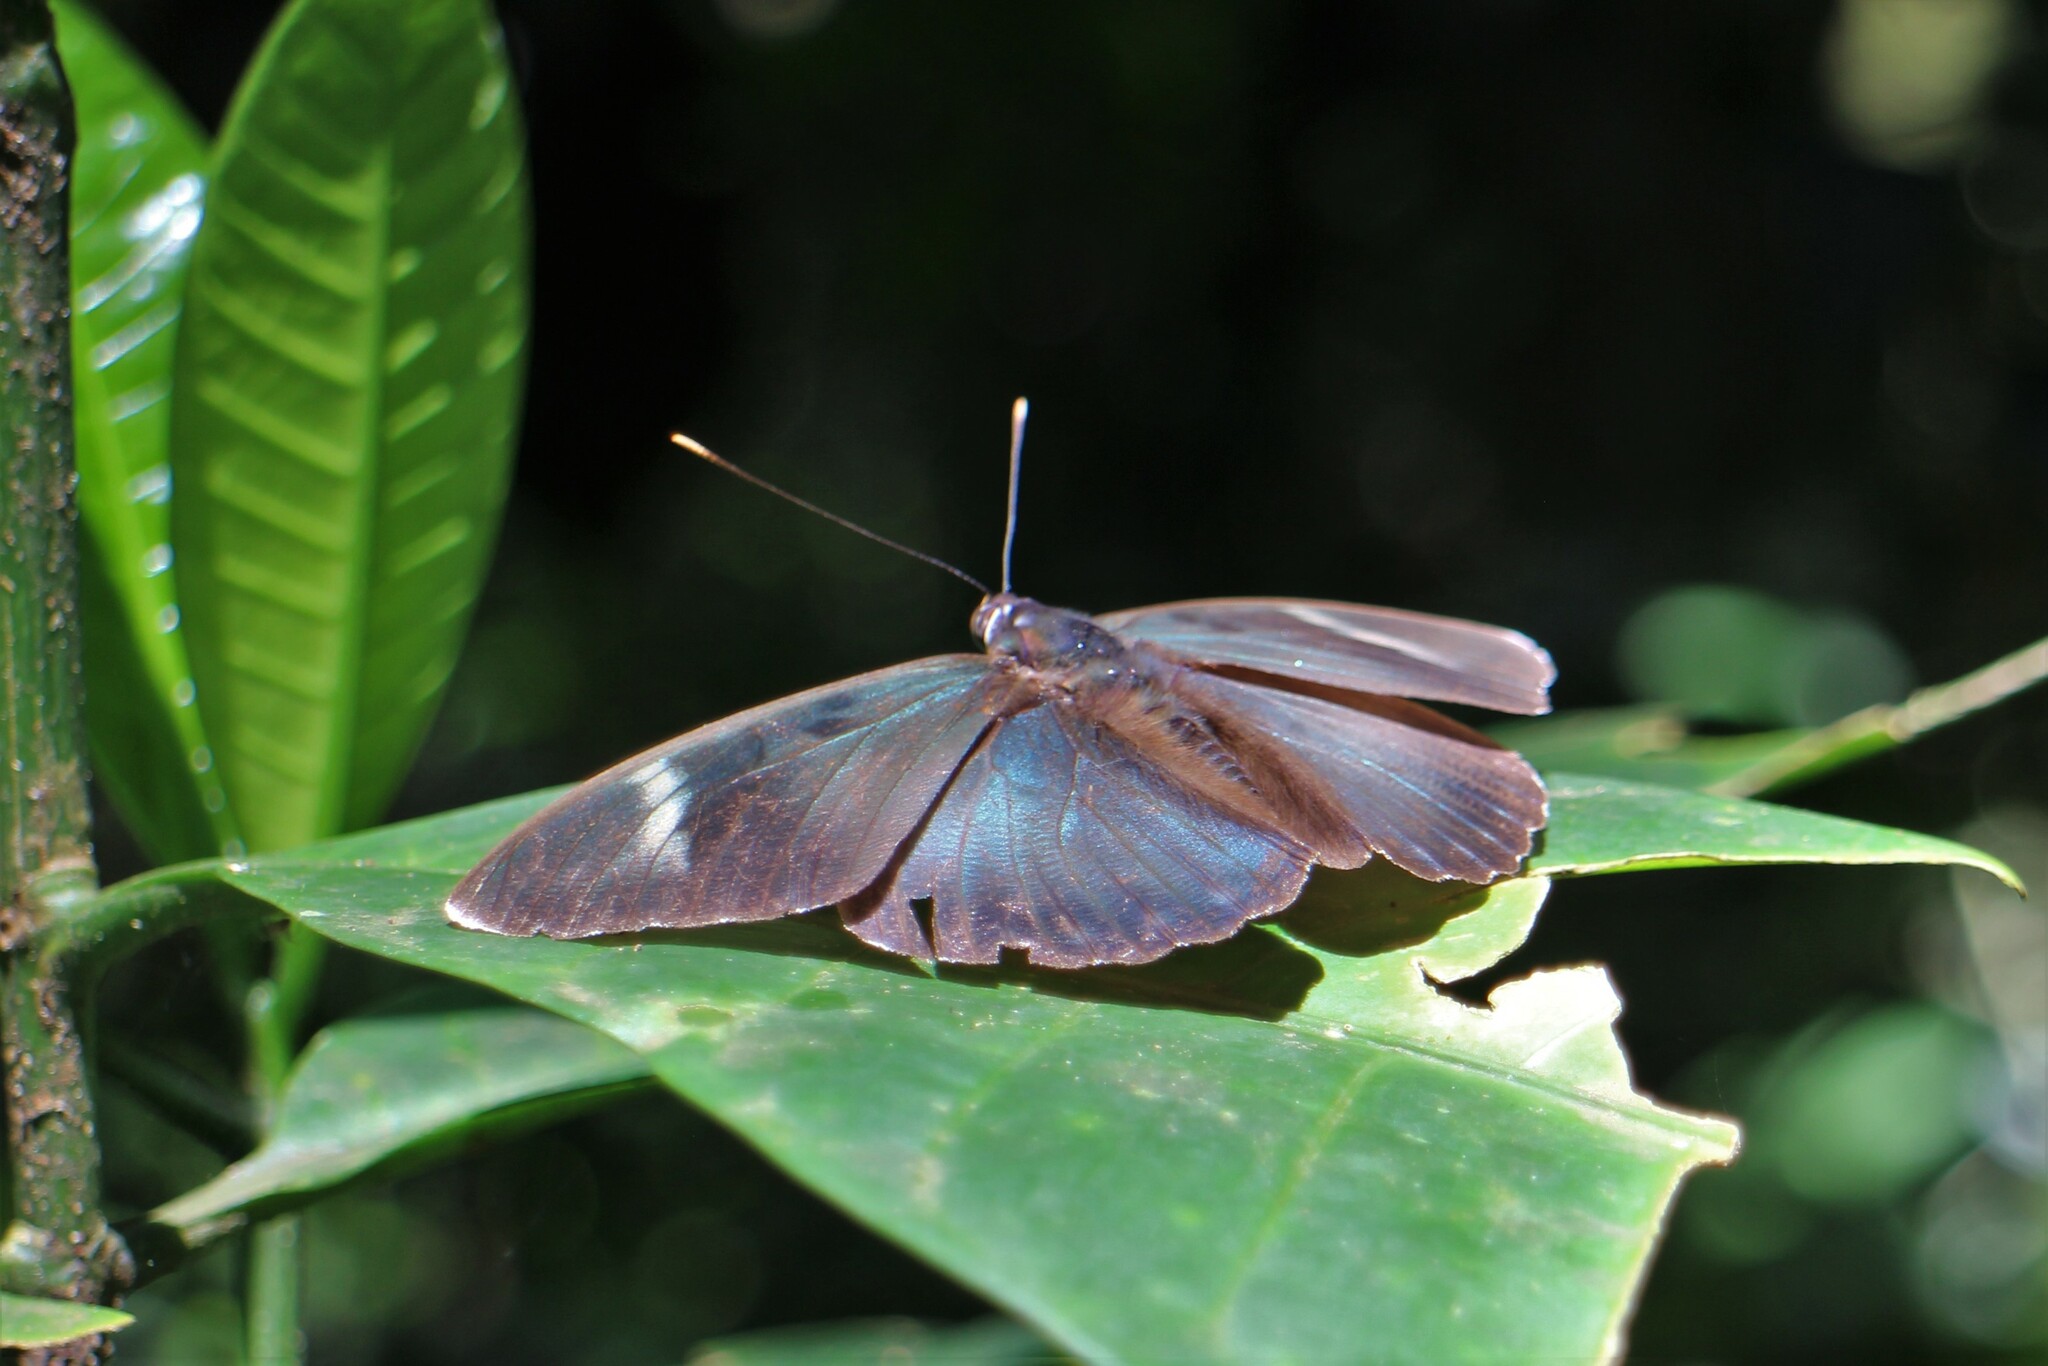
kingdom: Animalia
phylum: Arthropoda
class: Insecta
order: Lepidoptera
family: Nymphalidae
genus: Euphaedra
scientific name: Euphaedra rex
